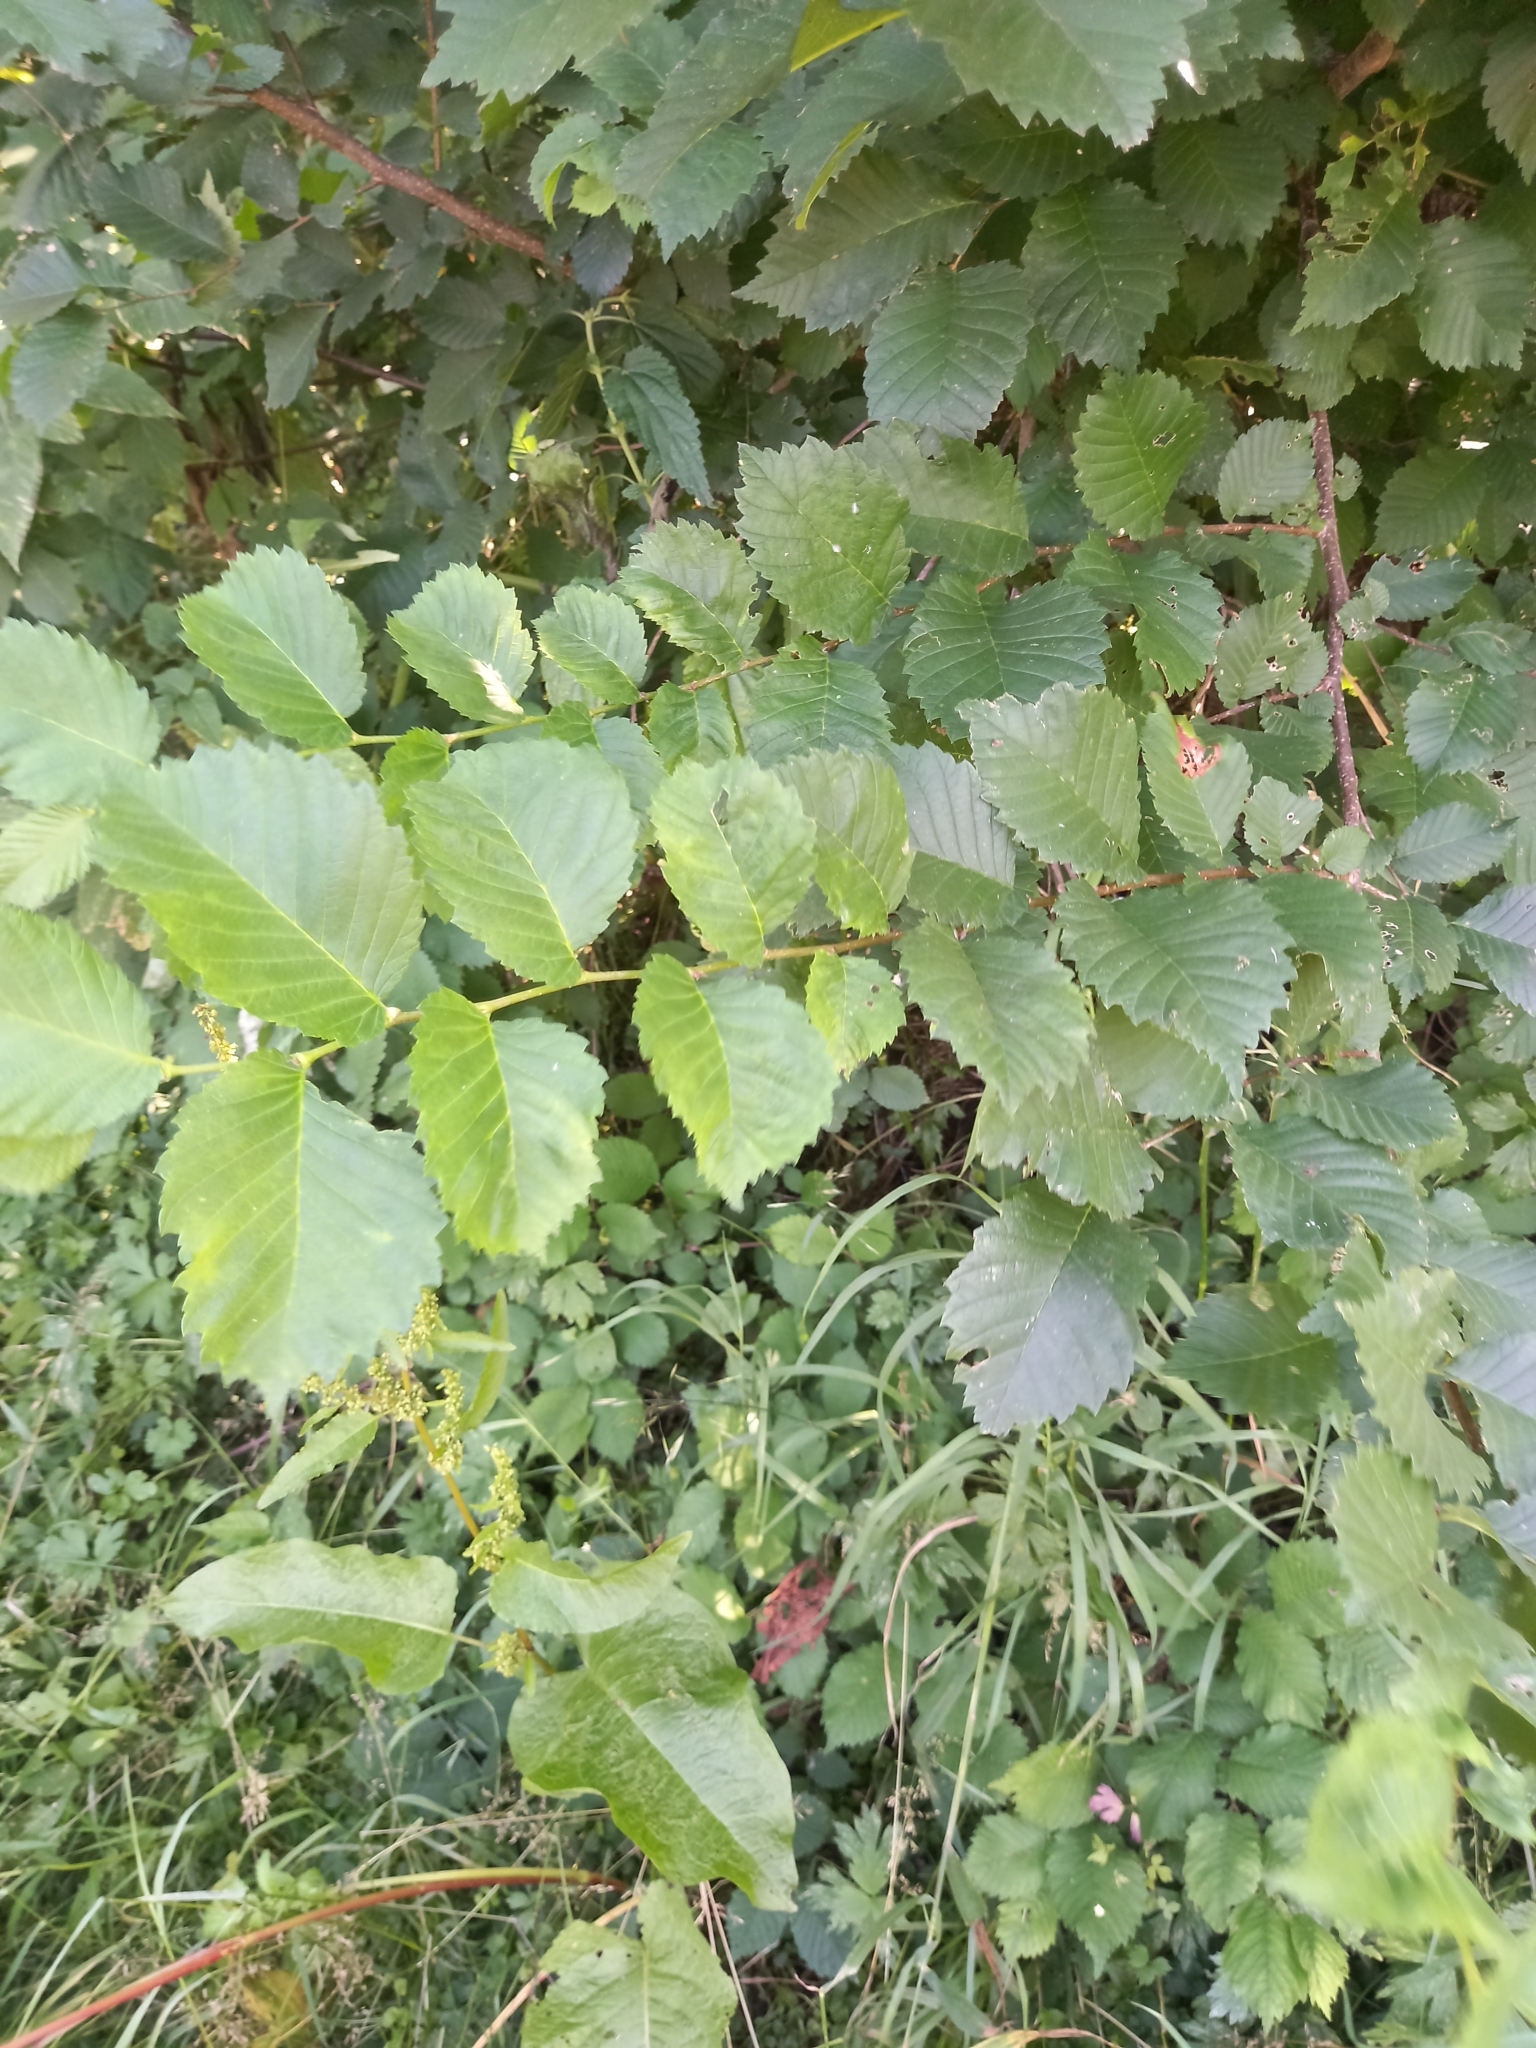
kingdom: Plantae
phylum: Tracheophyta
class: Magnoliopsida
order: Rosales
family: Ulmaceae
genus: Ulmus
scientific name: Ulmus laevis
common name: European white-elm
